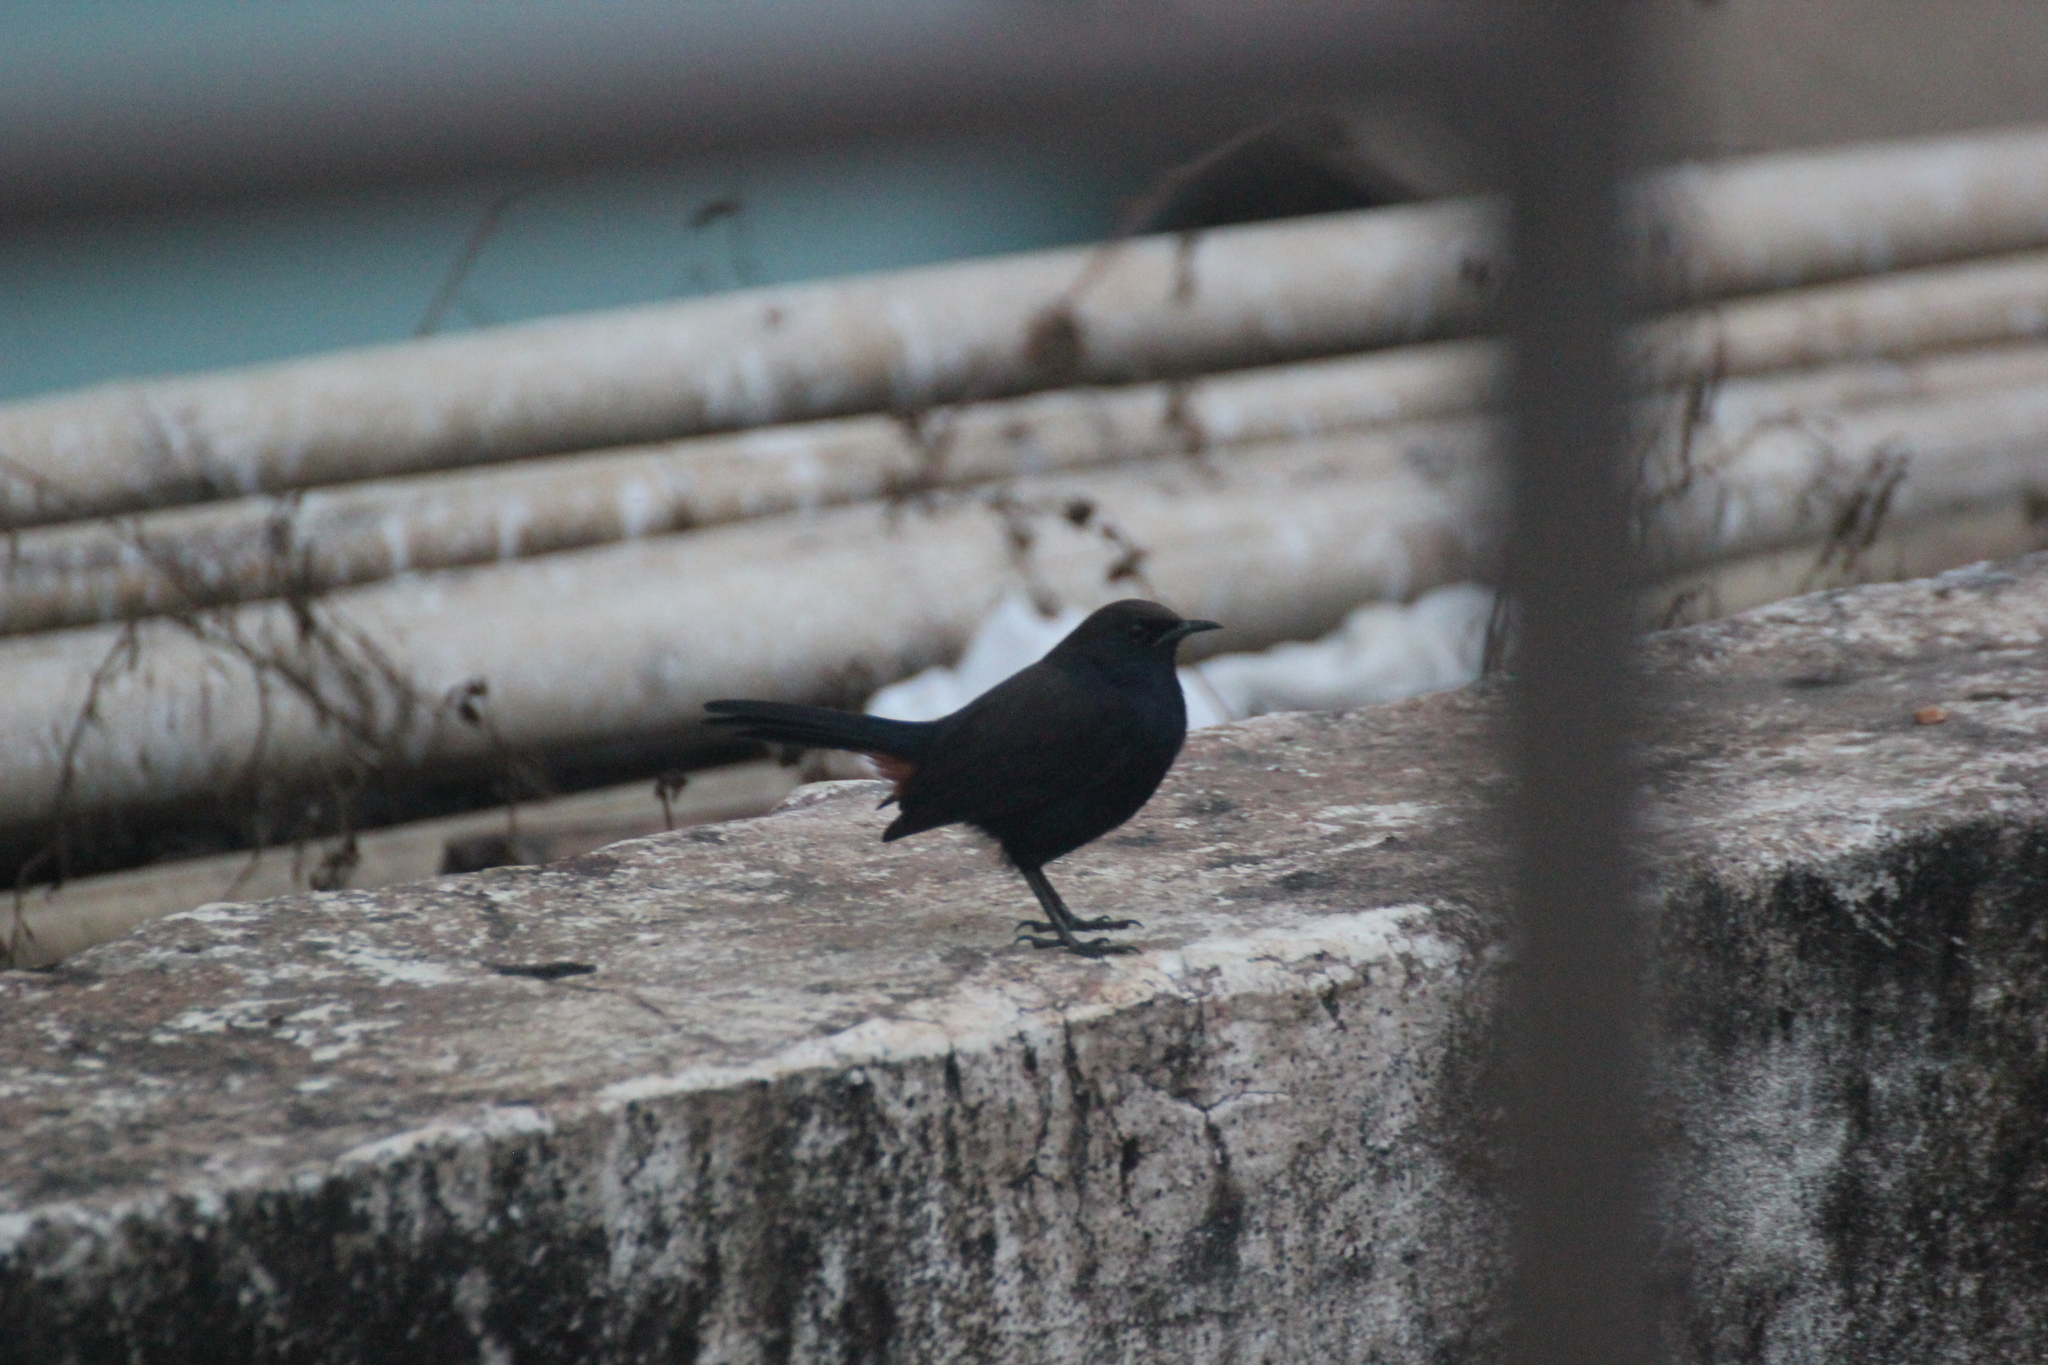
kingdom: Animalia
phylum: Chordata
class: Aves
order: Passeriformes
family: Muscicapidae
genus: Saxicoloides
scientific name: Saxicoloides fulicatus
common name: Indian robin
